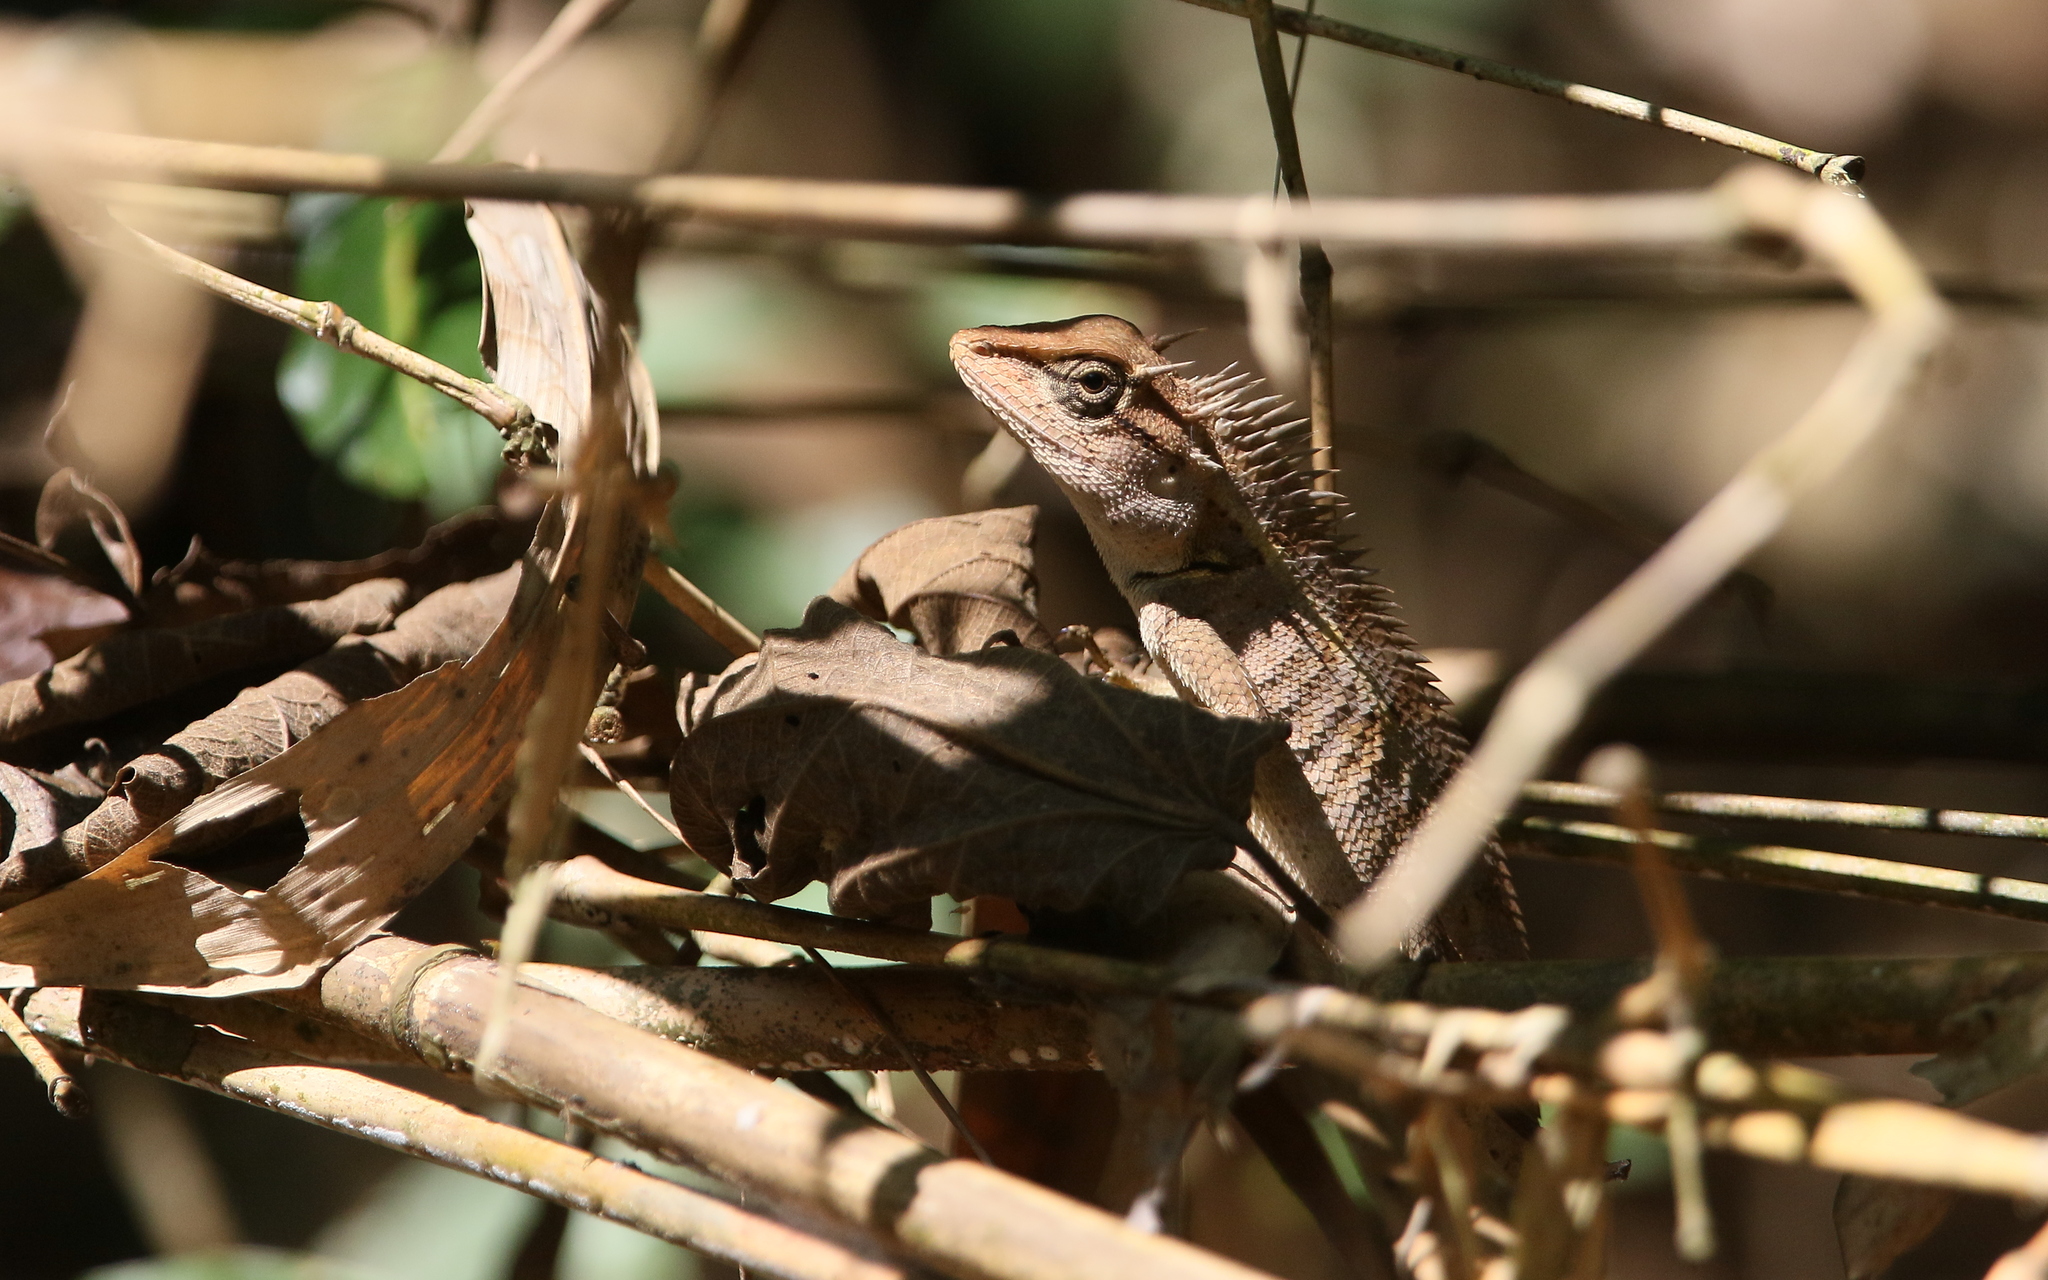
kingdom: Animalia
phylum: Chordata
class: Squamata
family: Agamidae
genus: Calotes
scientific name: Calotes emma
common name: Thailand bloodsucker
